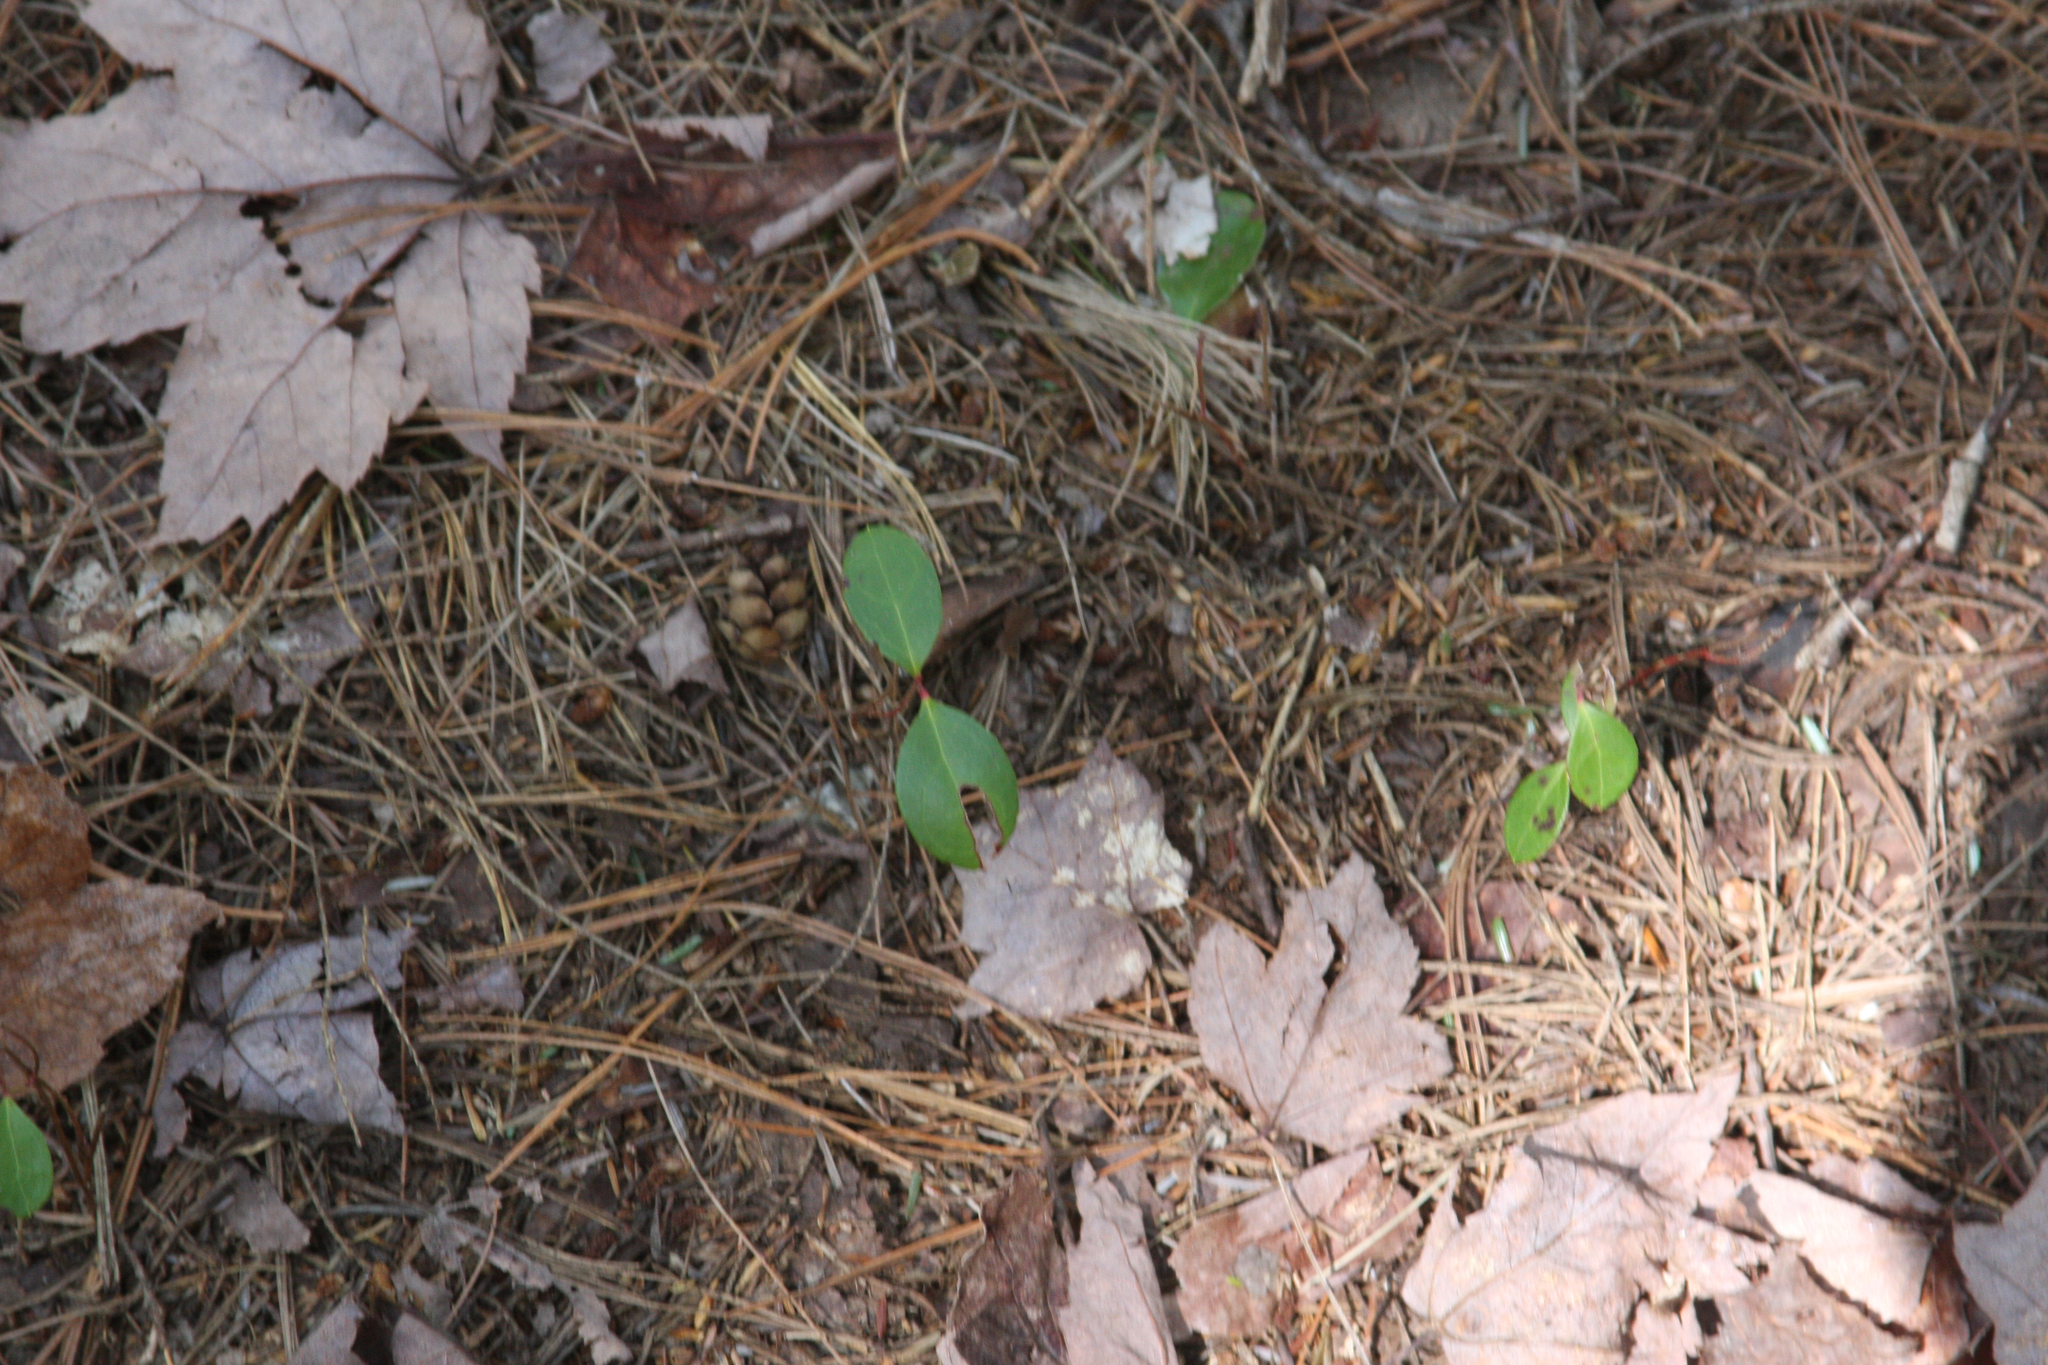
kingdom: Plantae
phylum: Tracheophyta
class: Magnoliopsida
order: Ericales
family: Ericaceae
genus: Gaultheria
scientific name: Gaultheria procumbens
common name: Checkerberry
